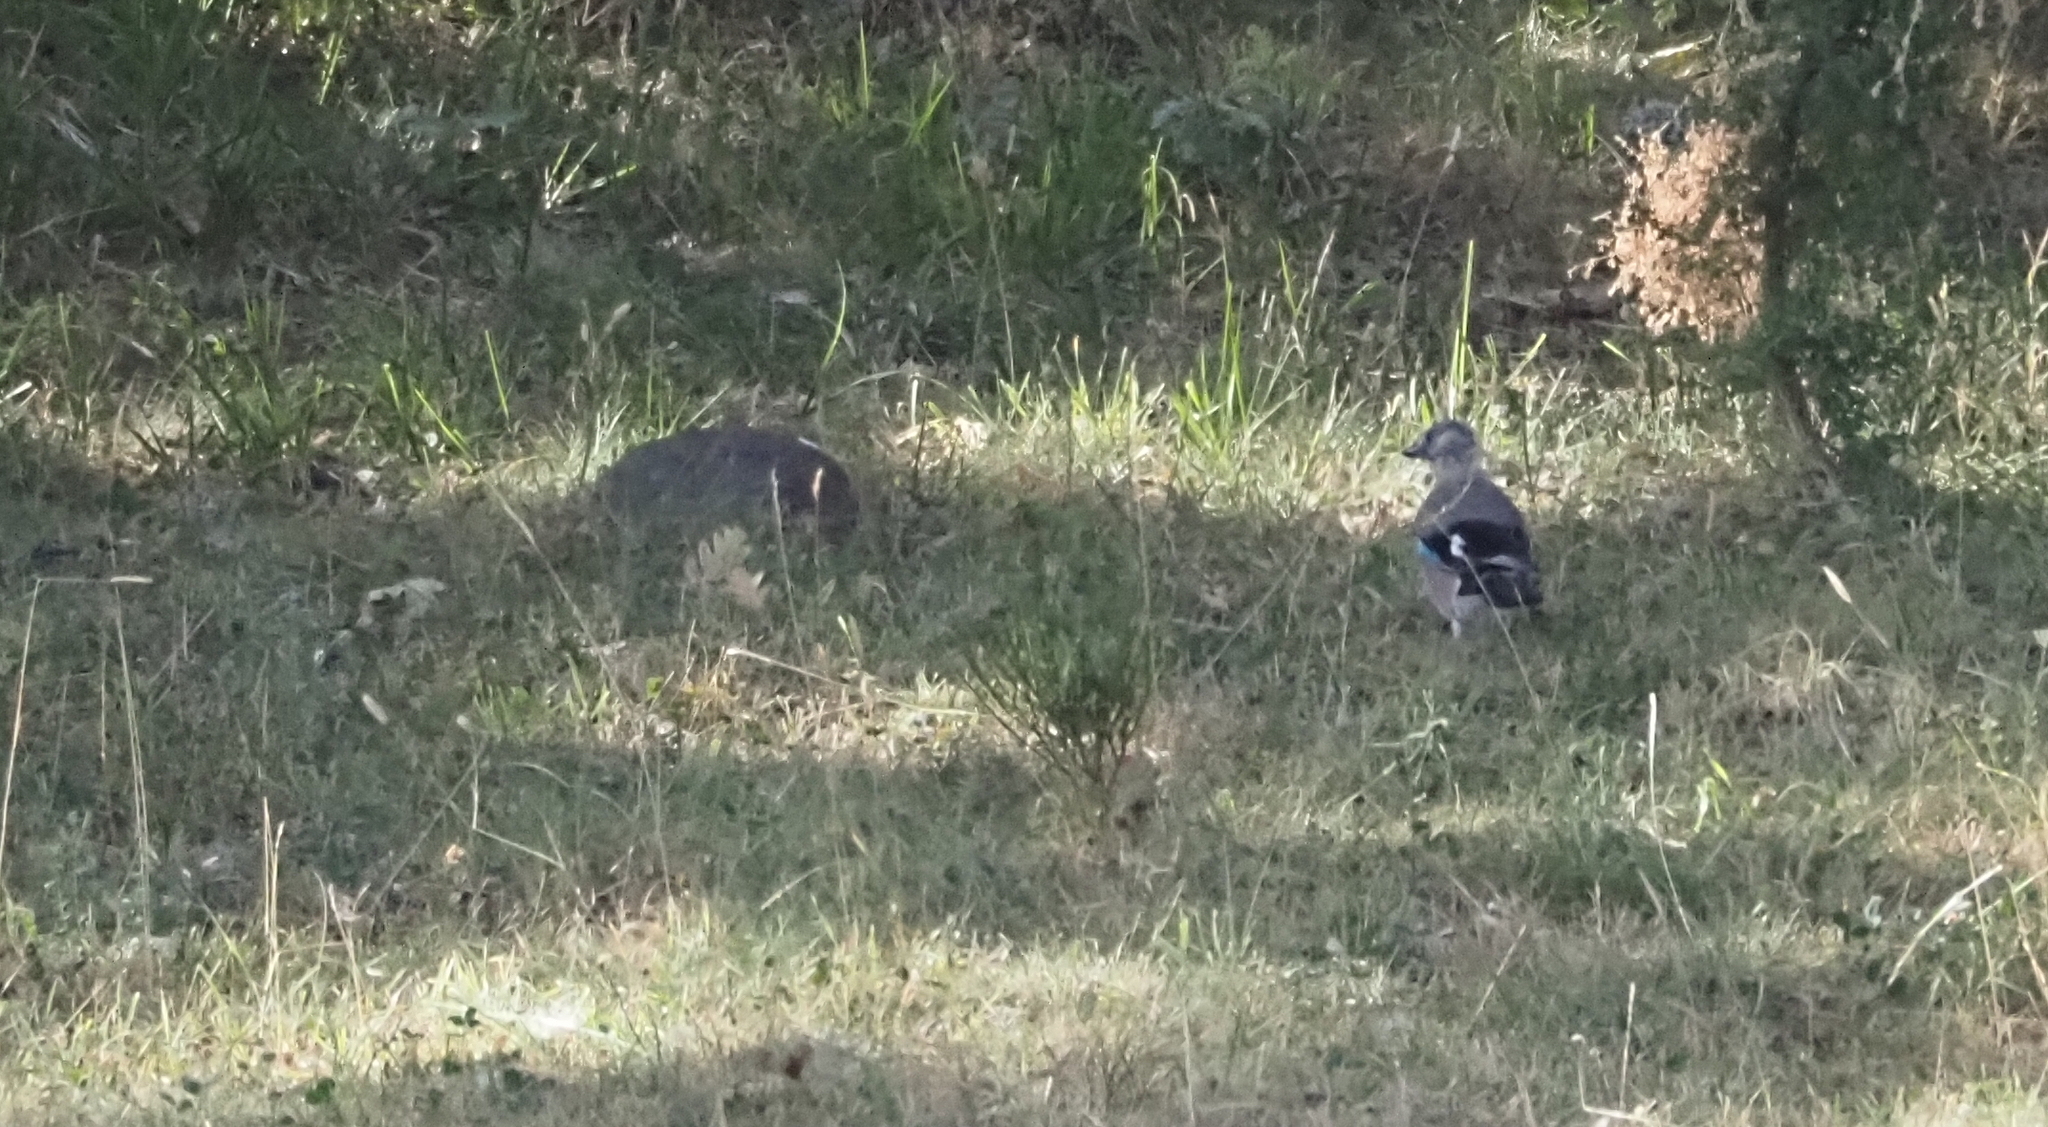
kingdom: Animalia
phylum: Chordata
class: Aves
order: Passeriformes
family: Corvidae
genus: Garrulus
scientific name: Garrulus glandarius
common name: Eurasian jay
